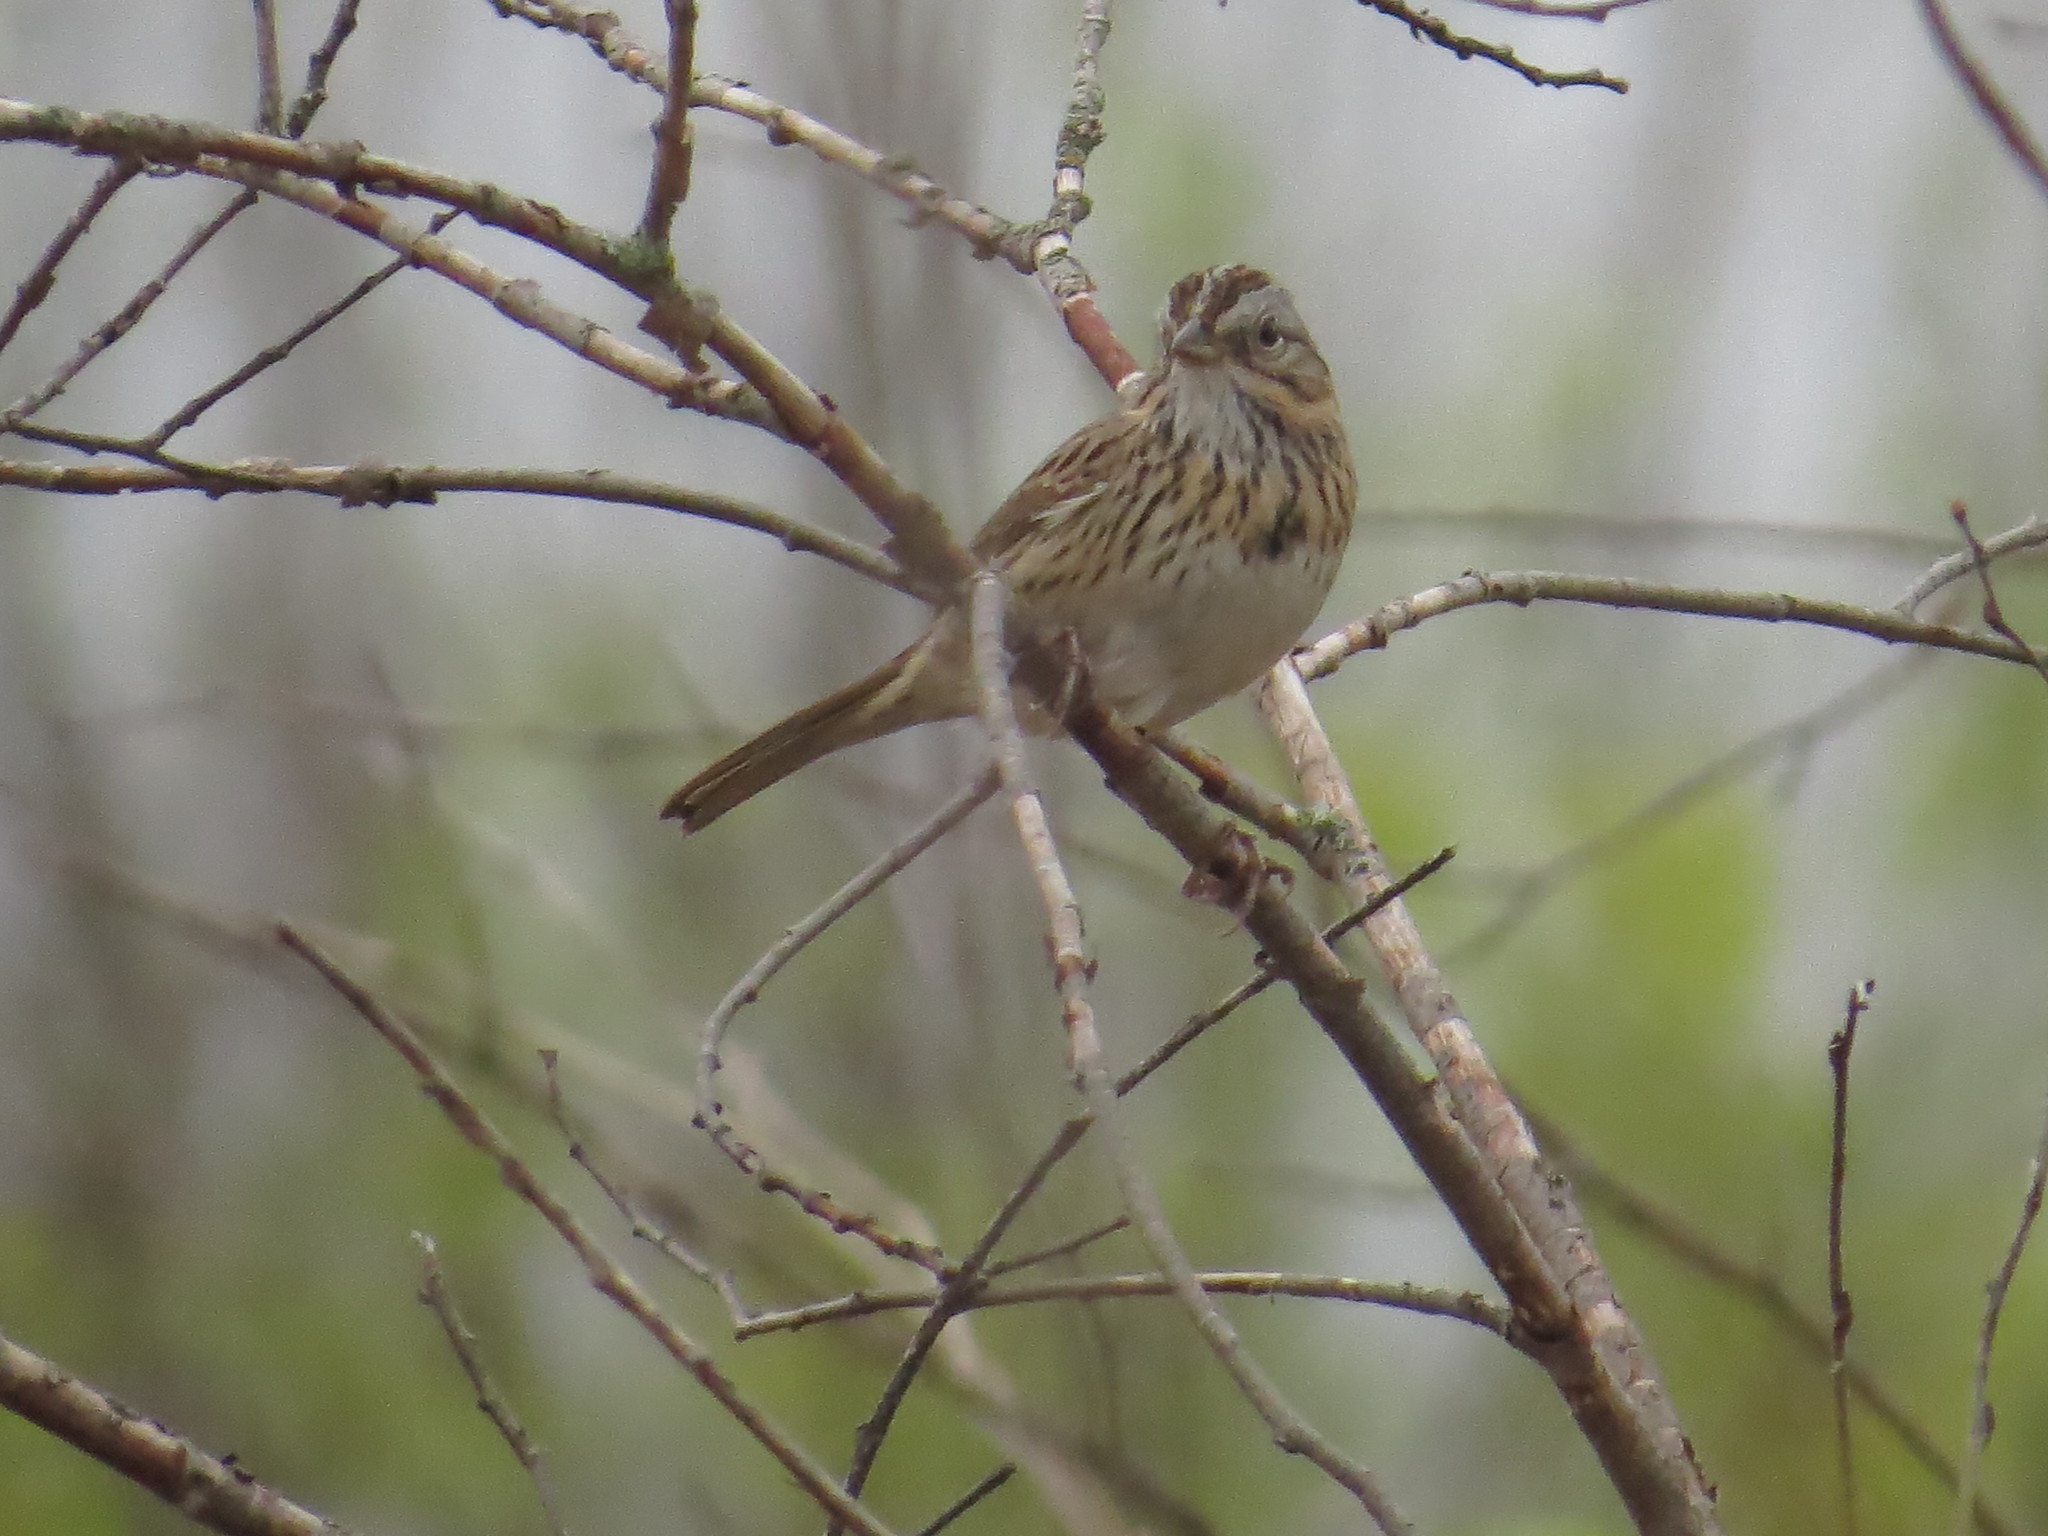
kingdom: Animalia
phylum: Chordata
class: Aves
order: Passeriformes
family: Passerellidae
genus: Melospiza
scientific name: Melospiza lincolnii
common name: Lincoln's sparrow
